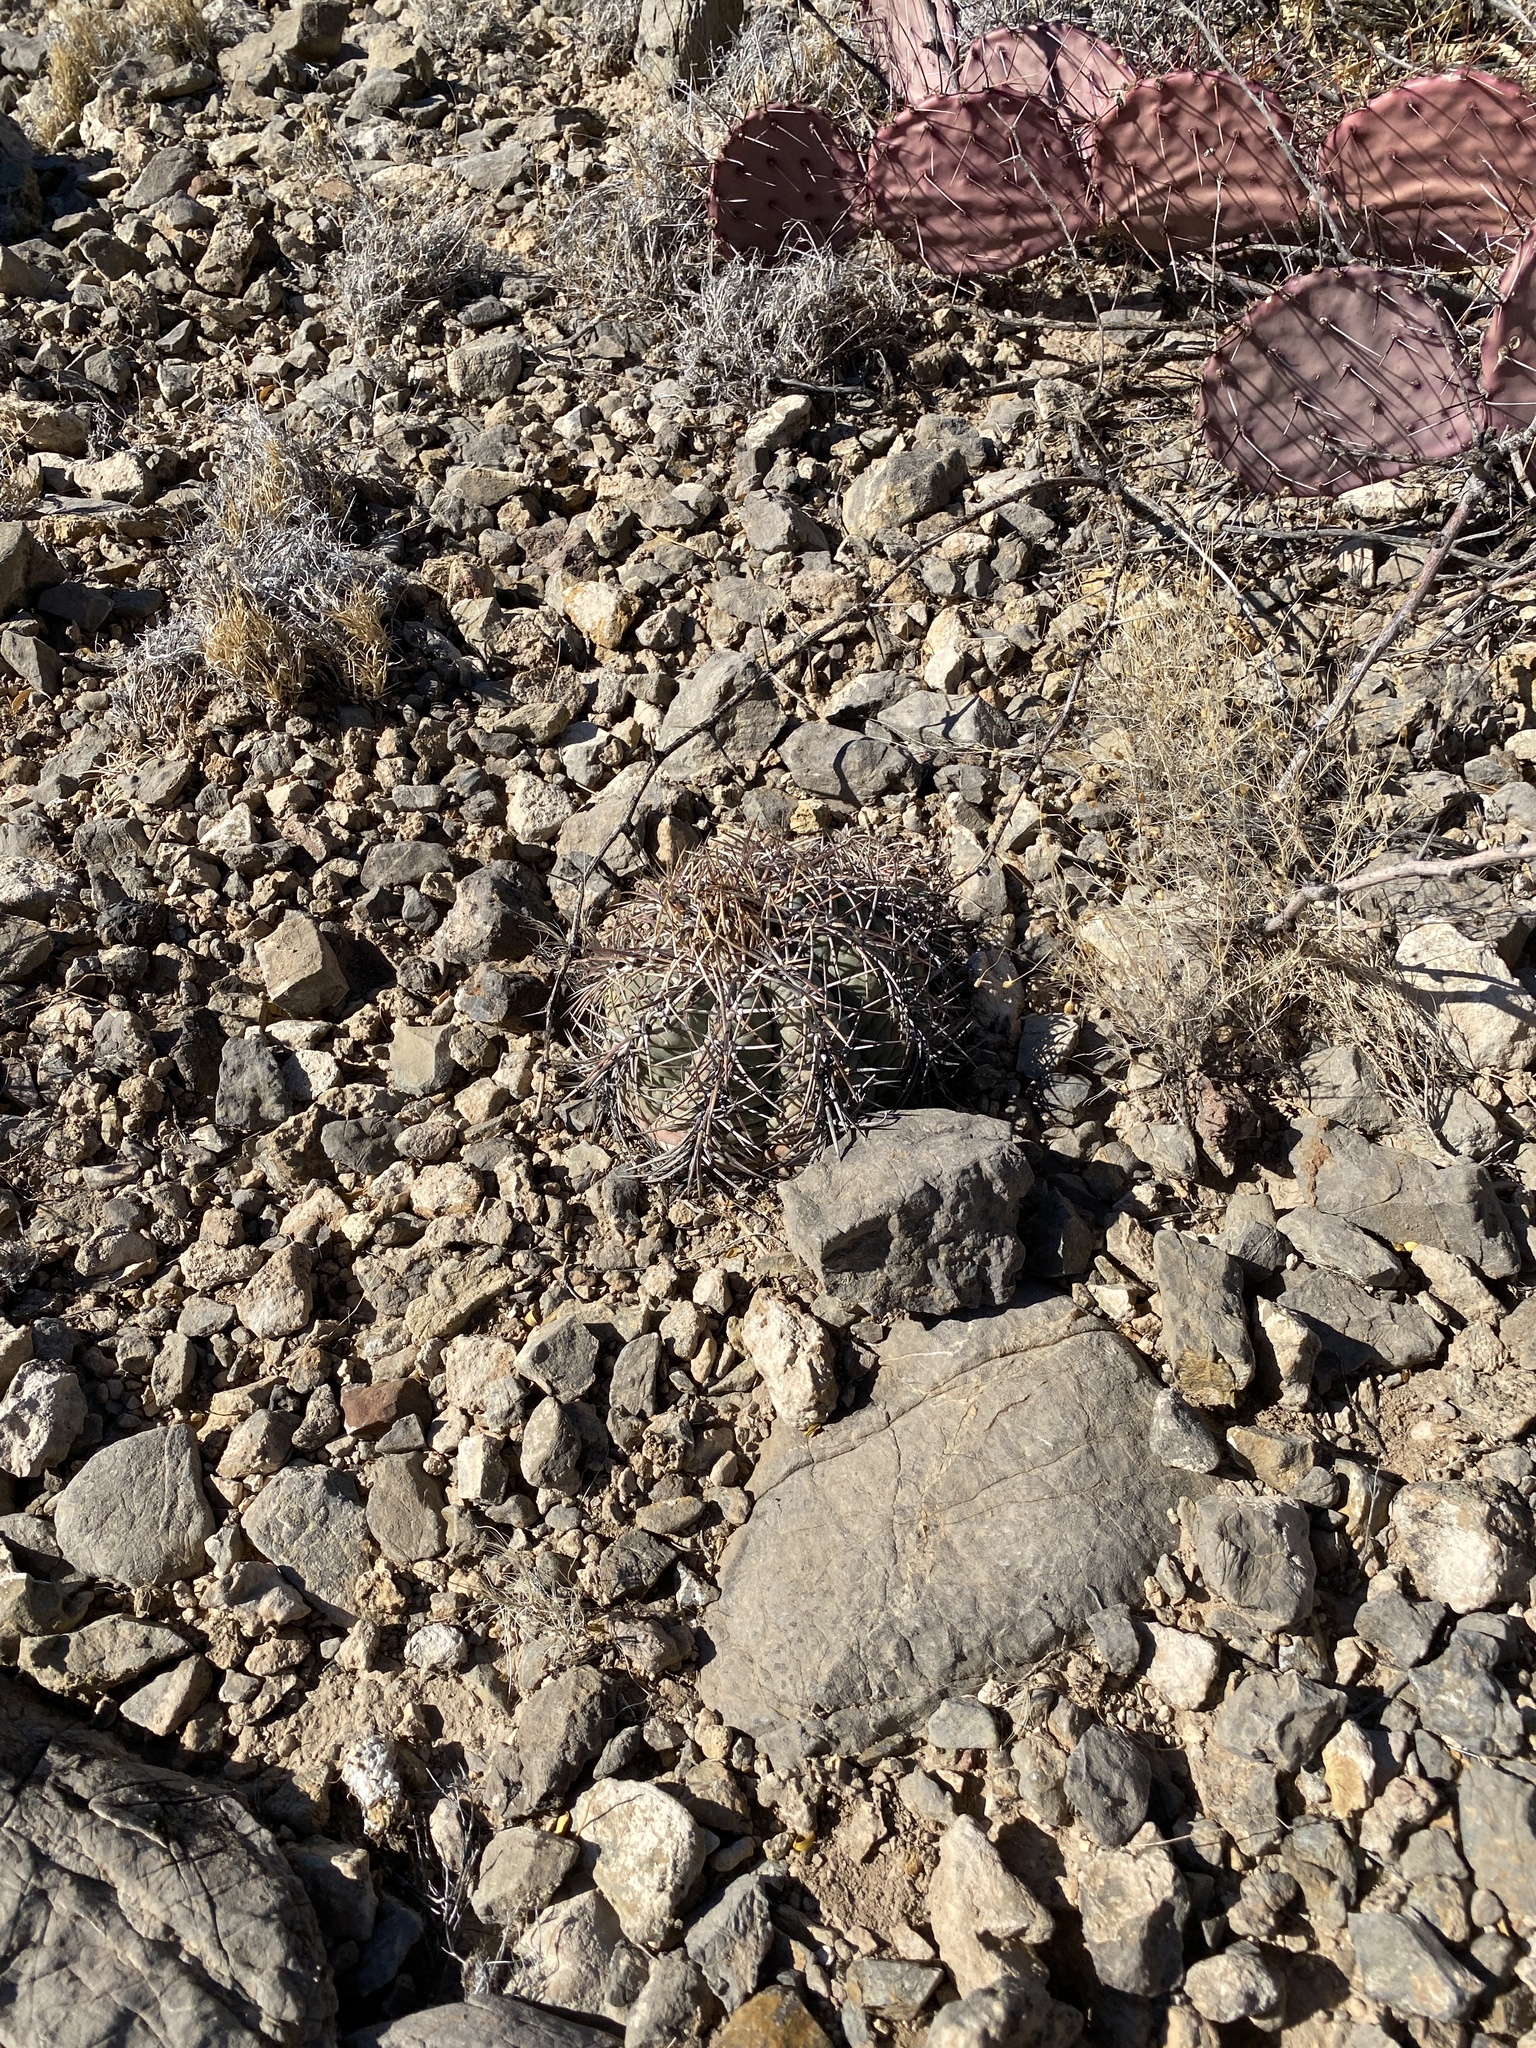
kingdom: Plantae
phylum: Tracheophyta
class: Magnoliopsida
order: Caryophyllales
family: Cactaceae
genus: Echinocactus
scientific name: Echinocactus horizonthalonius
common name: Devilshead
